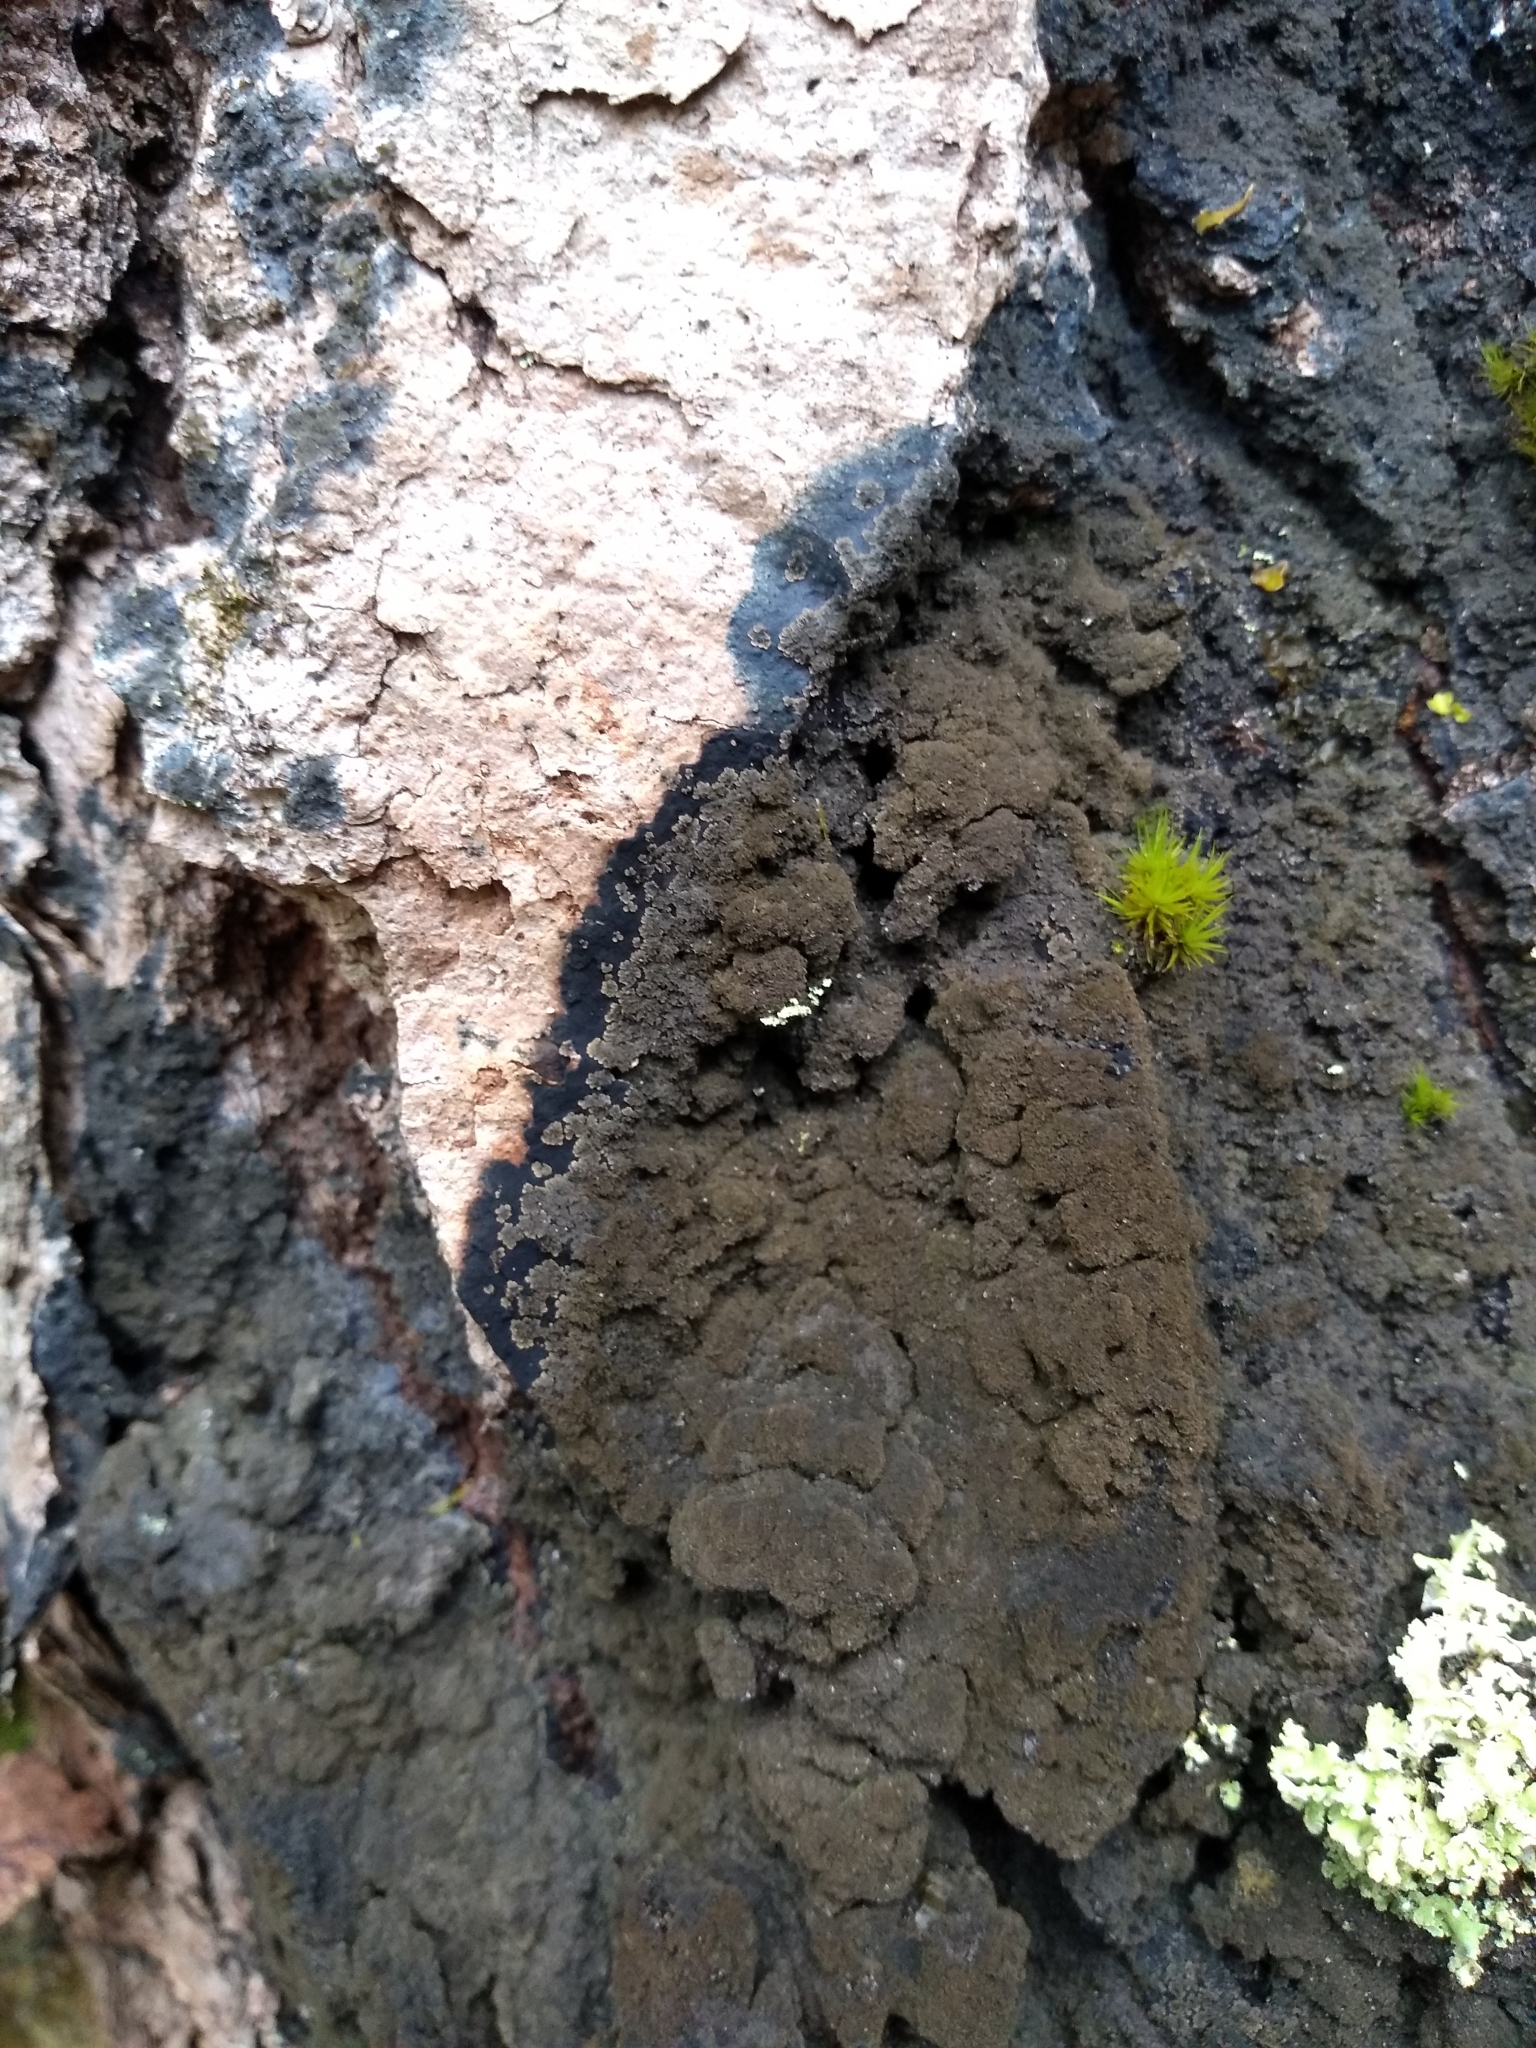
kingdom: Fungi
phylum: Ascomycota
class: Lecanoromycetes
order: Peltigerales
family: Pannariaceae
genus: Parmeliella
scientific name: Parmeliella thriptophylla
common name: Black-bordered shingle lichen
